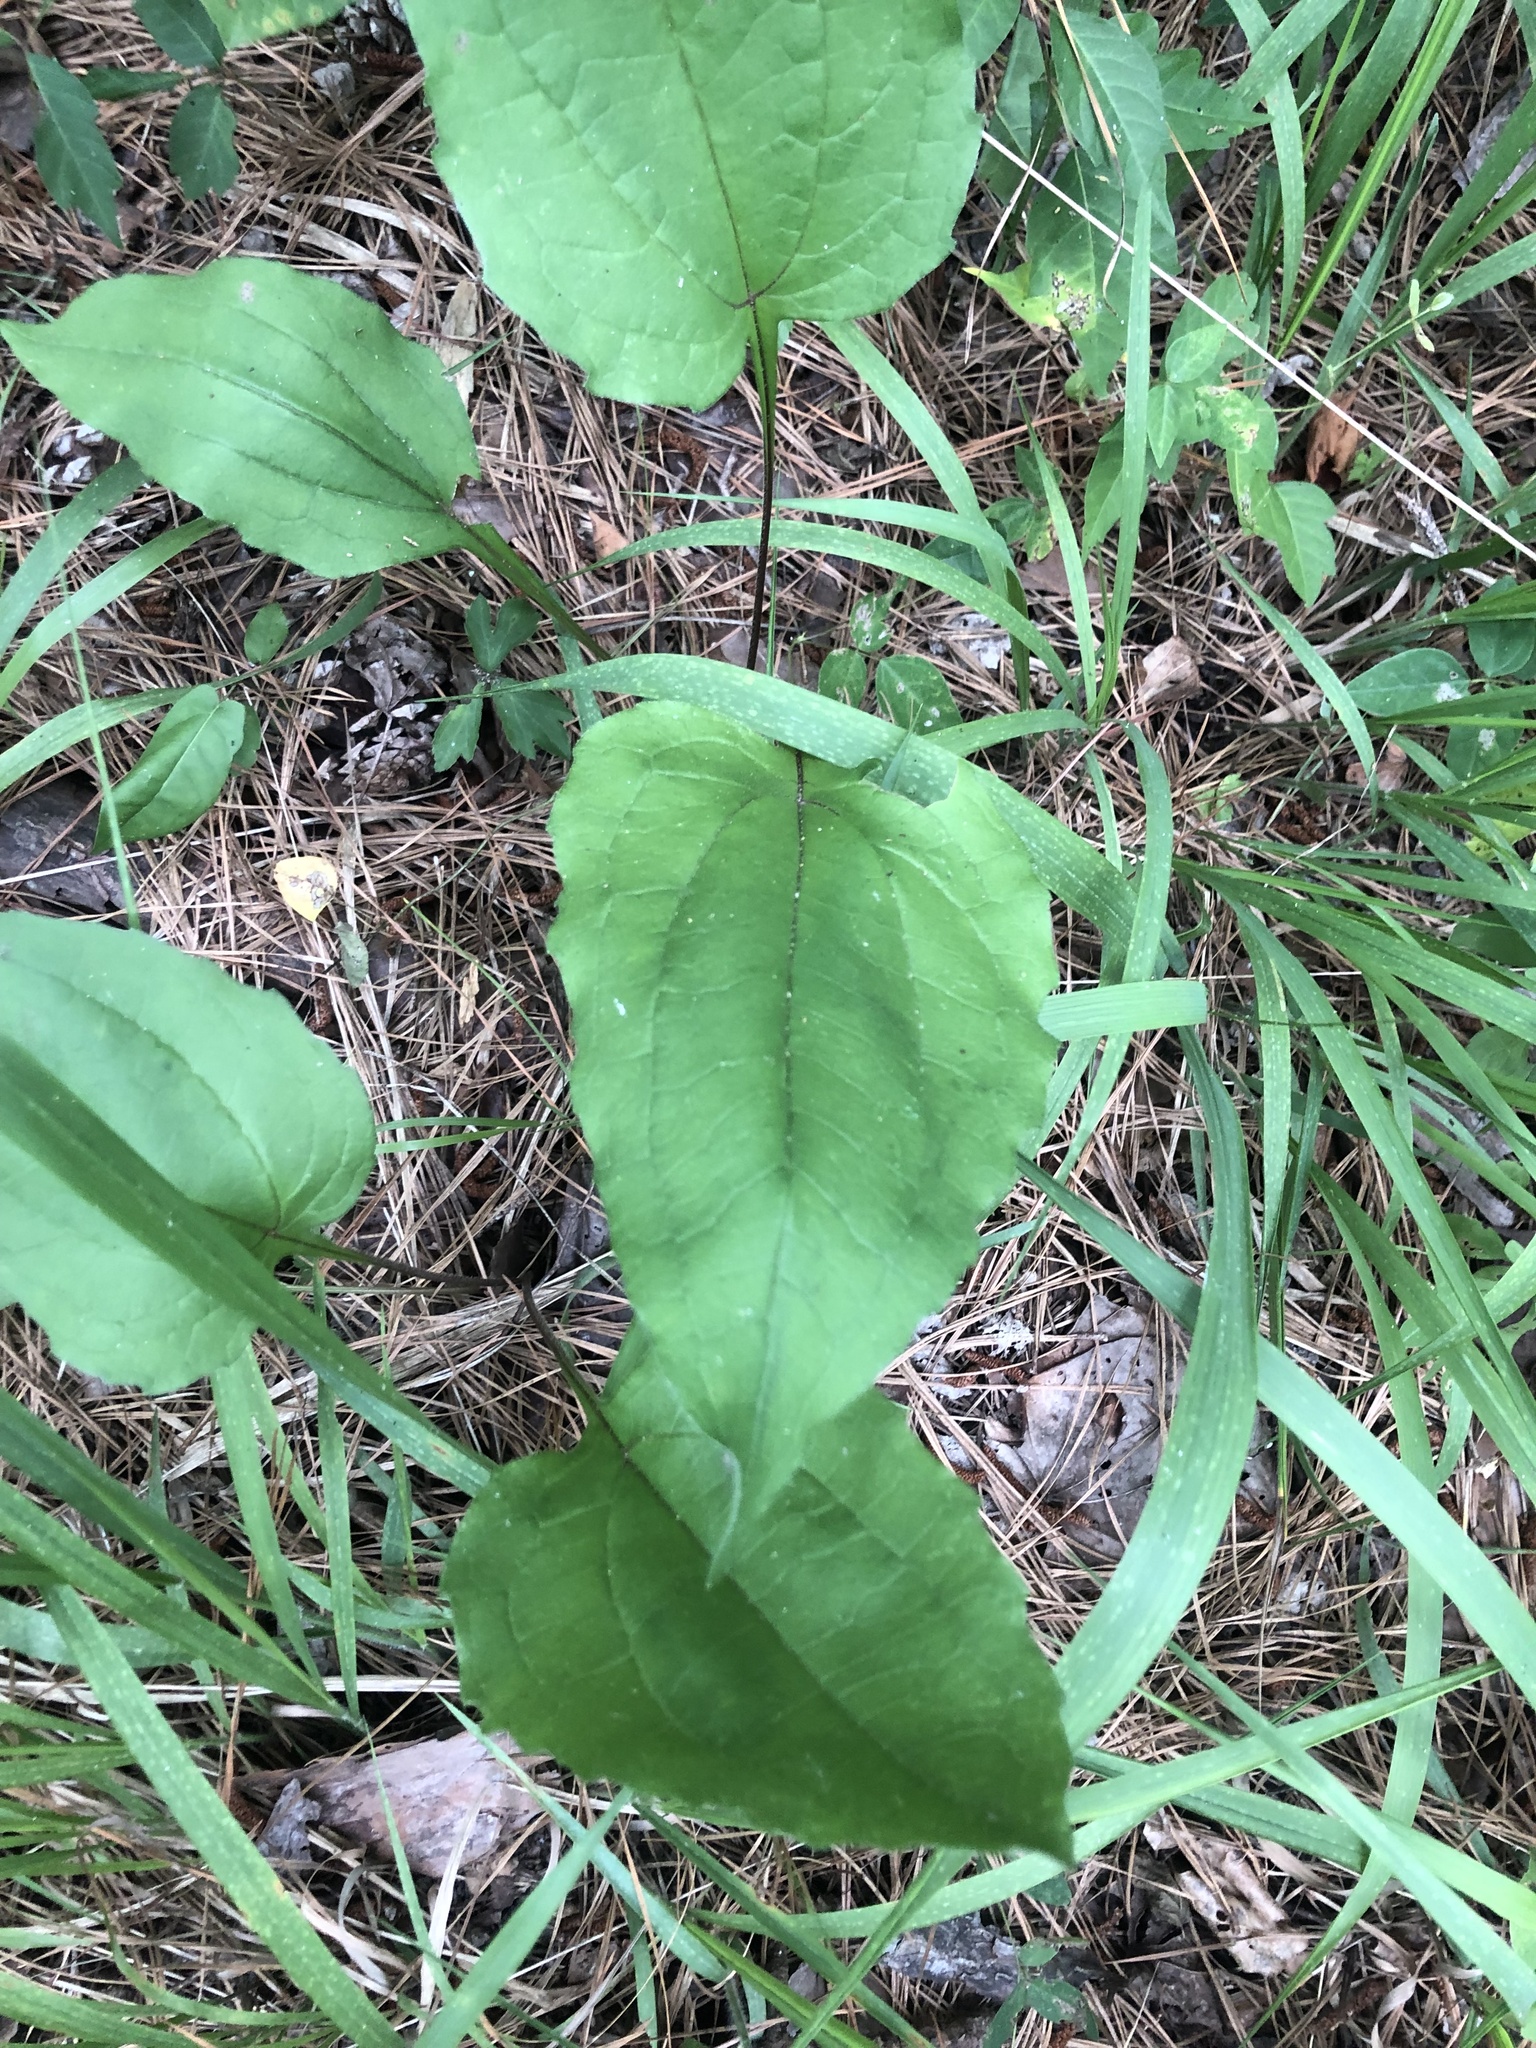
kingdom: Plantae
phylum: Tracheophyta
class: Magnoliopsida
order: Asterales
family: Asteraceae
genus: Echinacea
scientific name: Echinacea purpurea
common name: Broad-leaved purple coneflower
